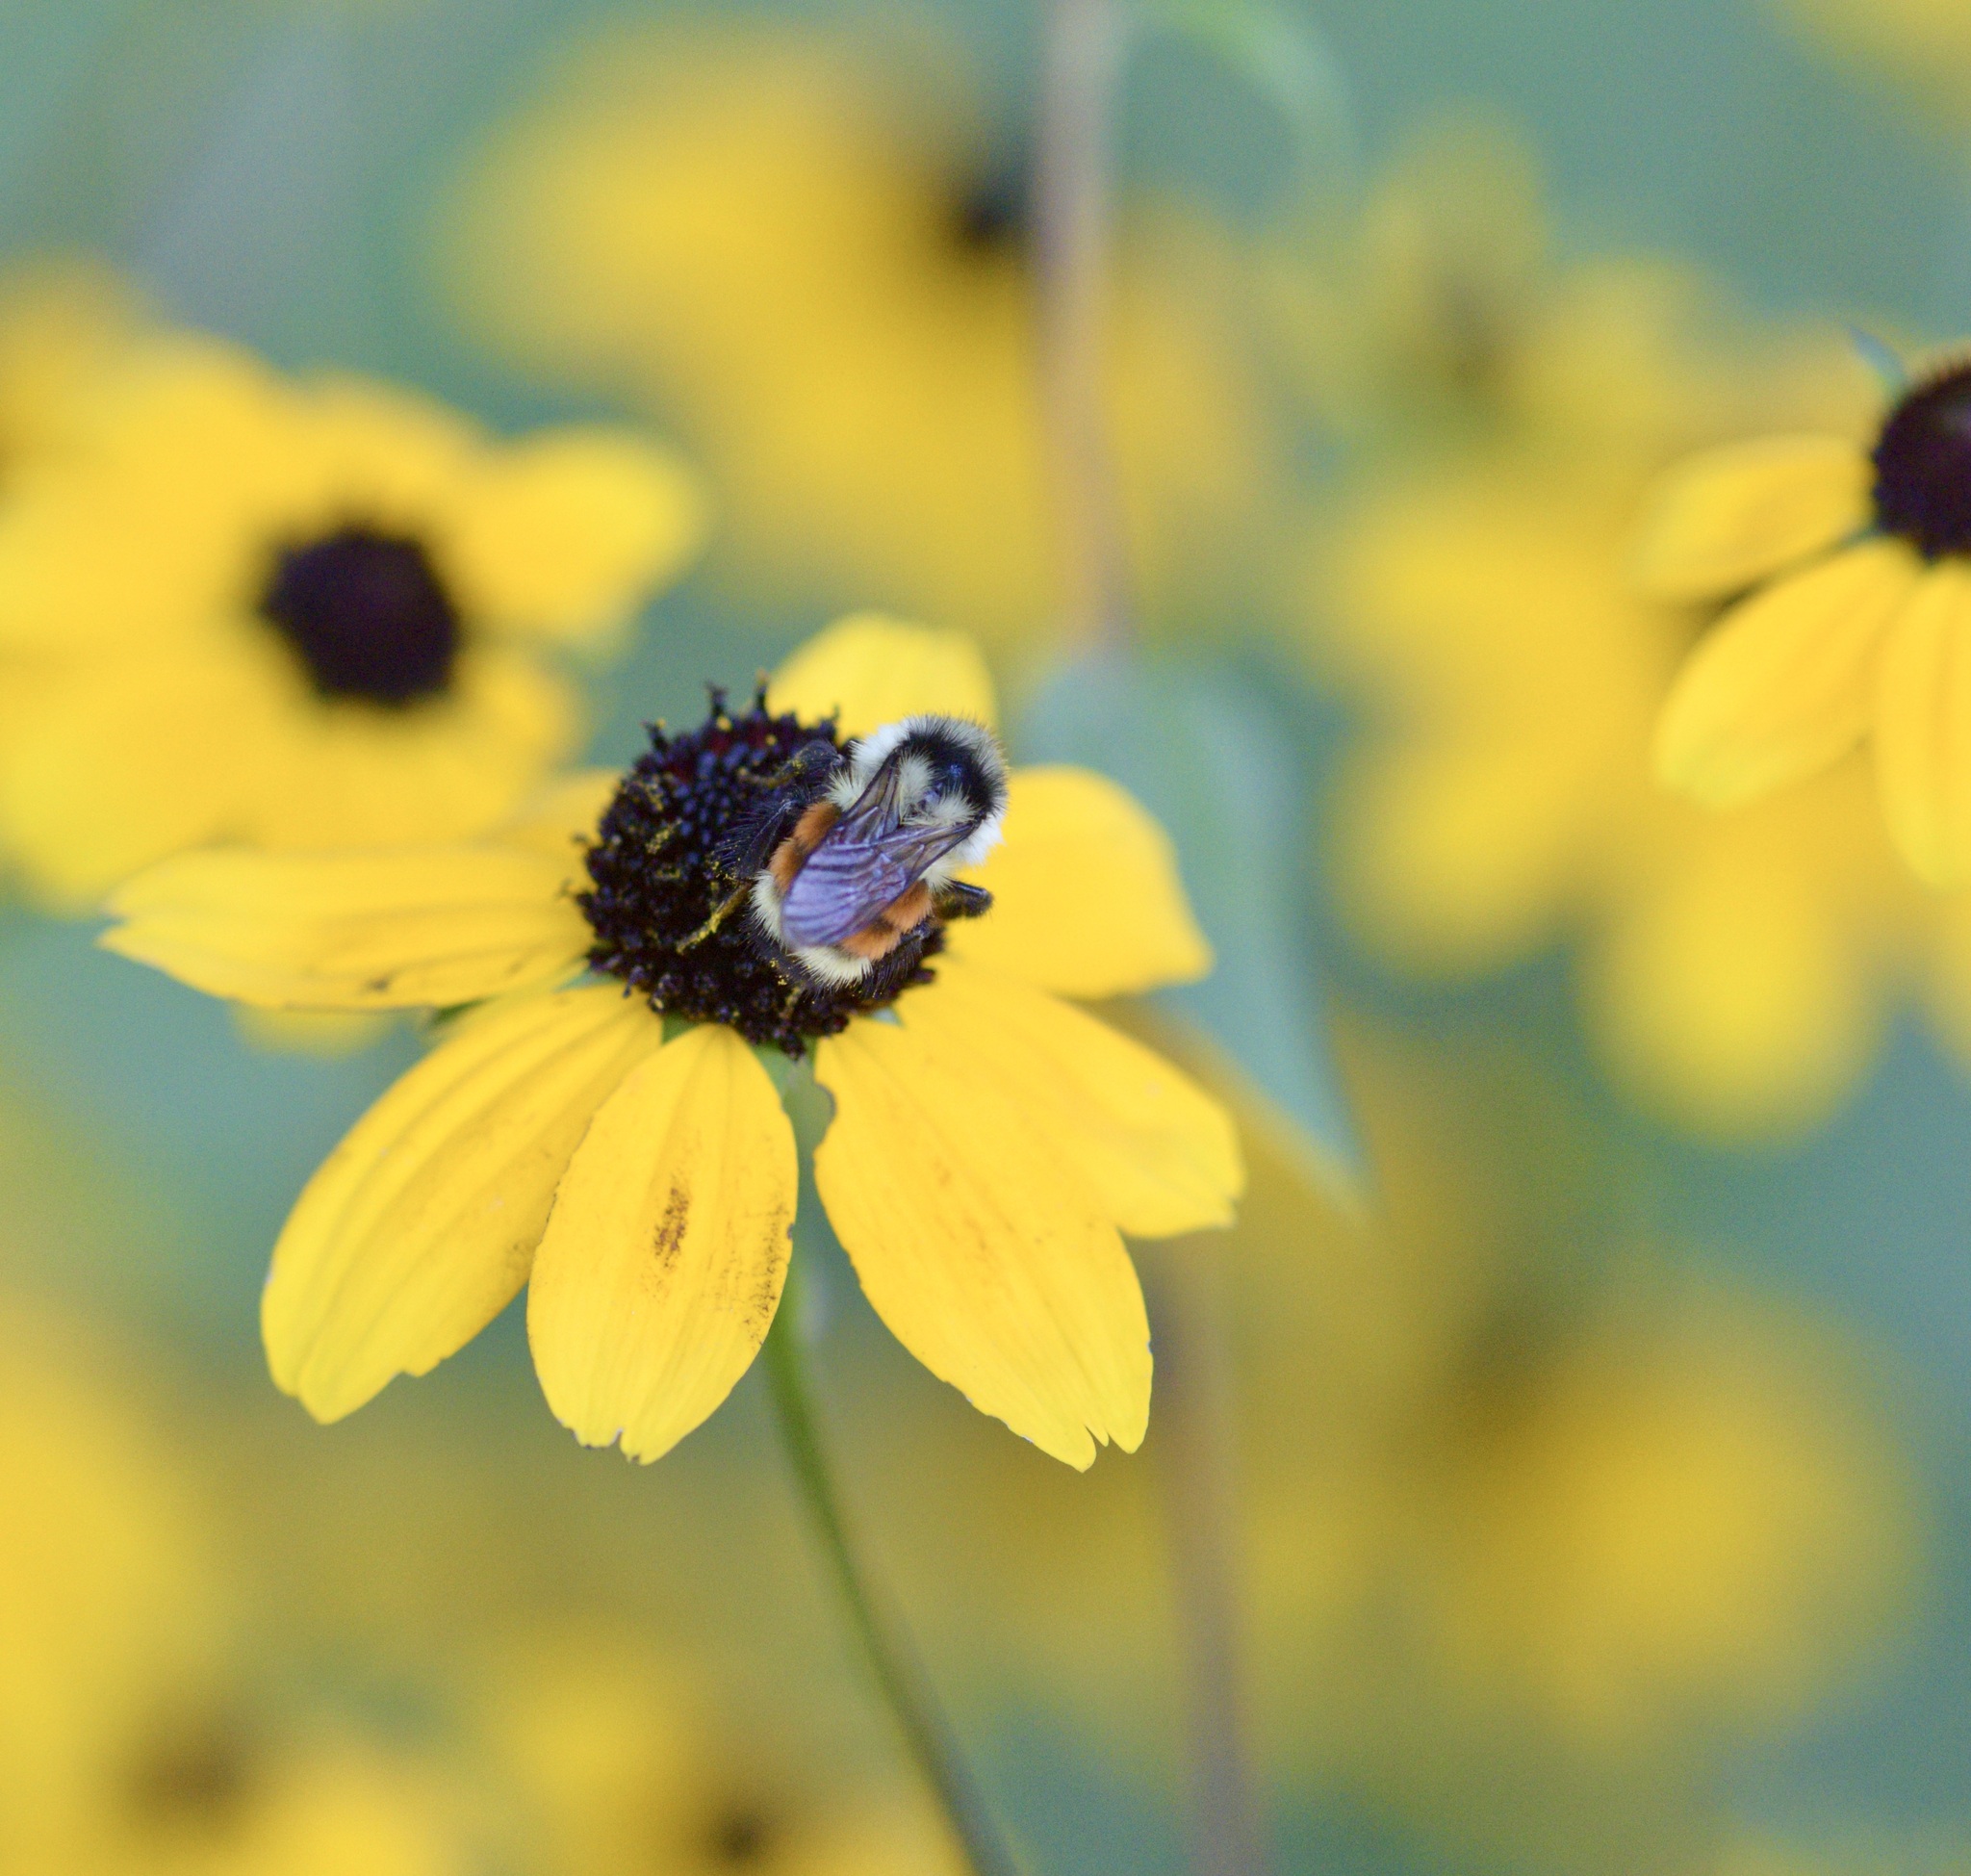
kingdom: Animalia
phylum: Arthropoda
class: Insecta
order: Hymenoptera
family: Apidae
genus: Bombus
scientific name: Bombus ternarius
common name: Tri-colored bumble bee
